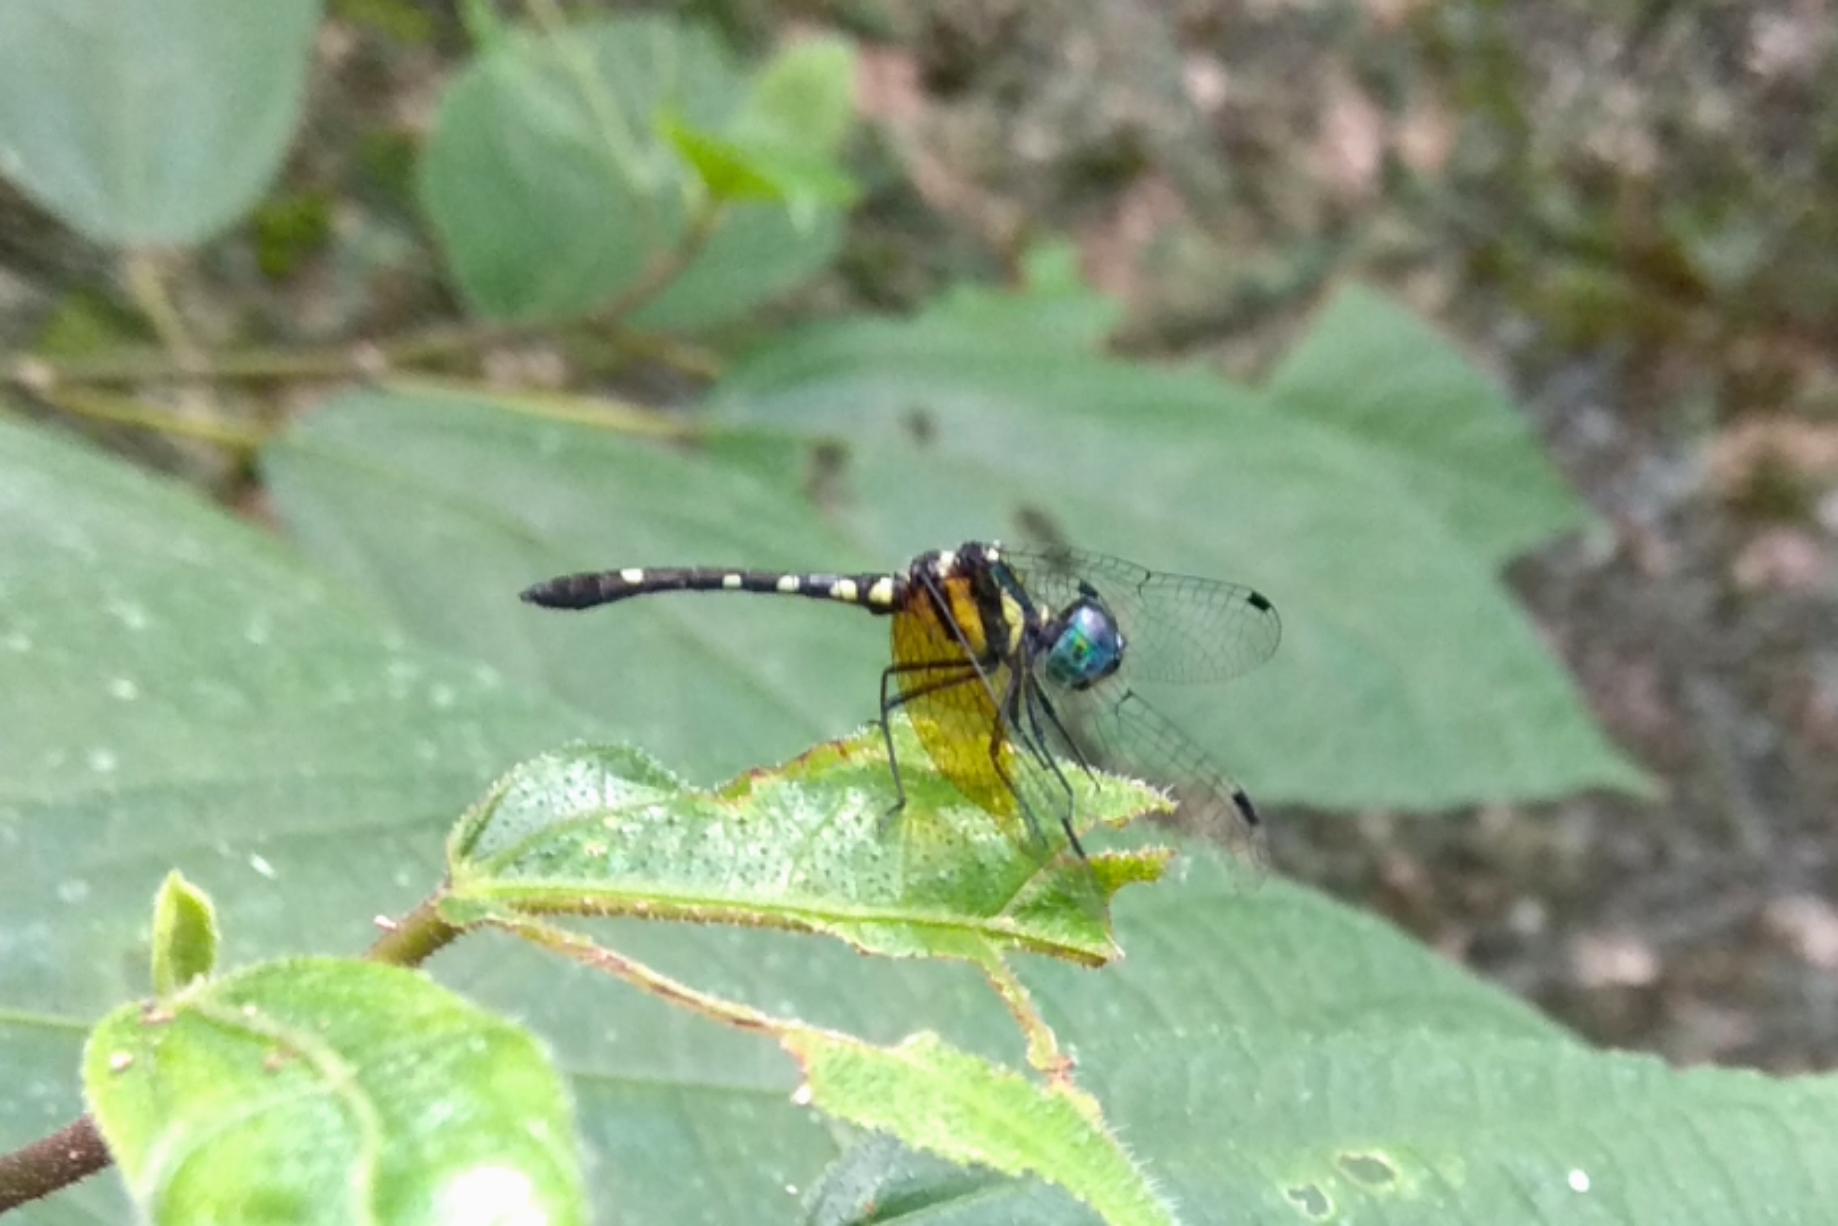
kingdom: Animalia
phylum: Arthropoda
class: Insecta
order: Odonata
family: Libellulidae
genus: Tetrathemis
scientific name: Tetrathemis platyptera
